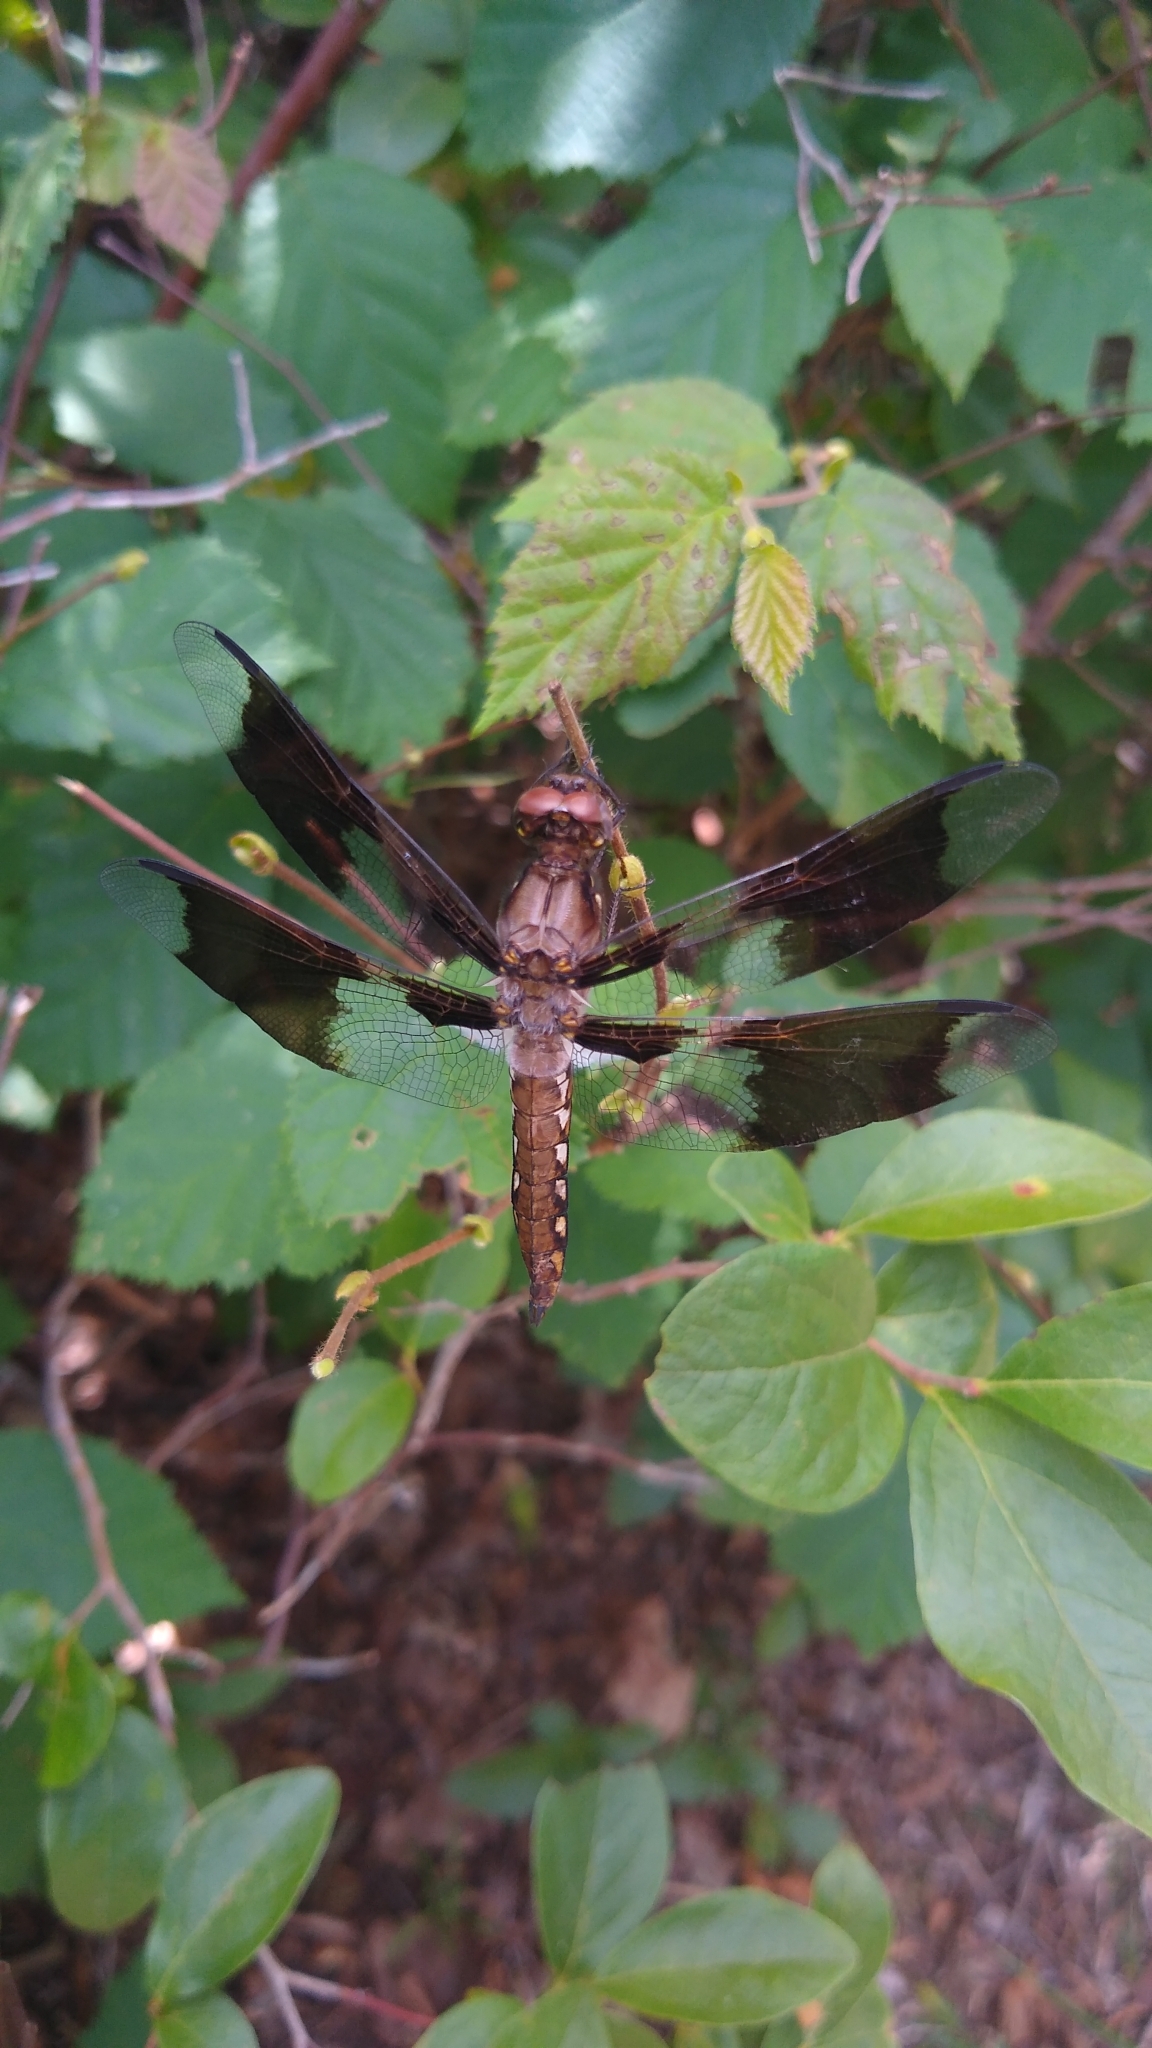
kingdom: Animalia
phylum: Arthropoda
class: Insecta
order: Odonata
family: Libellulidae
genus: Plathemis
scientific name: Plathemis lydia
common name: Common whitetail
